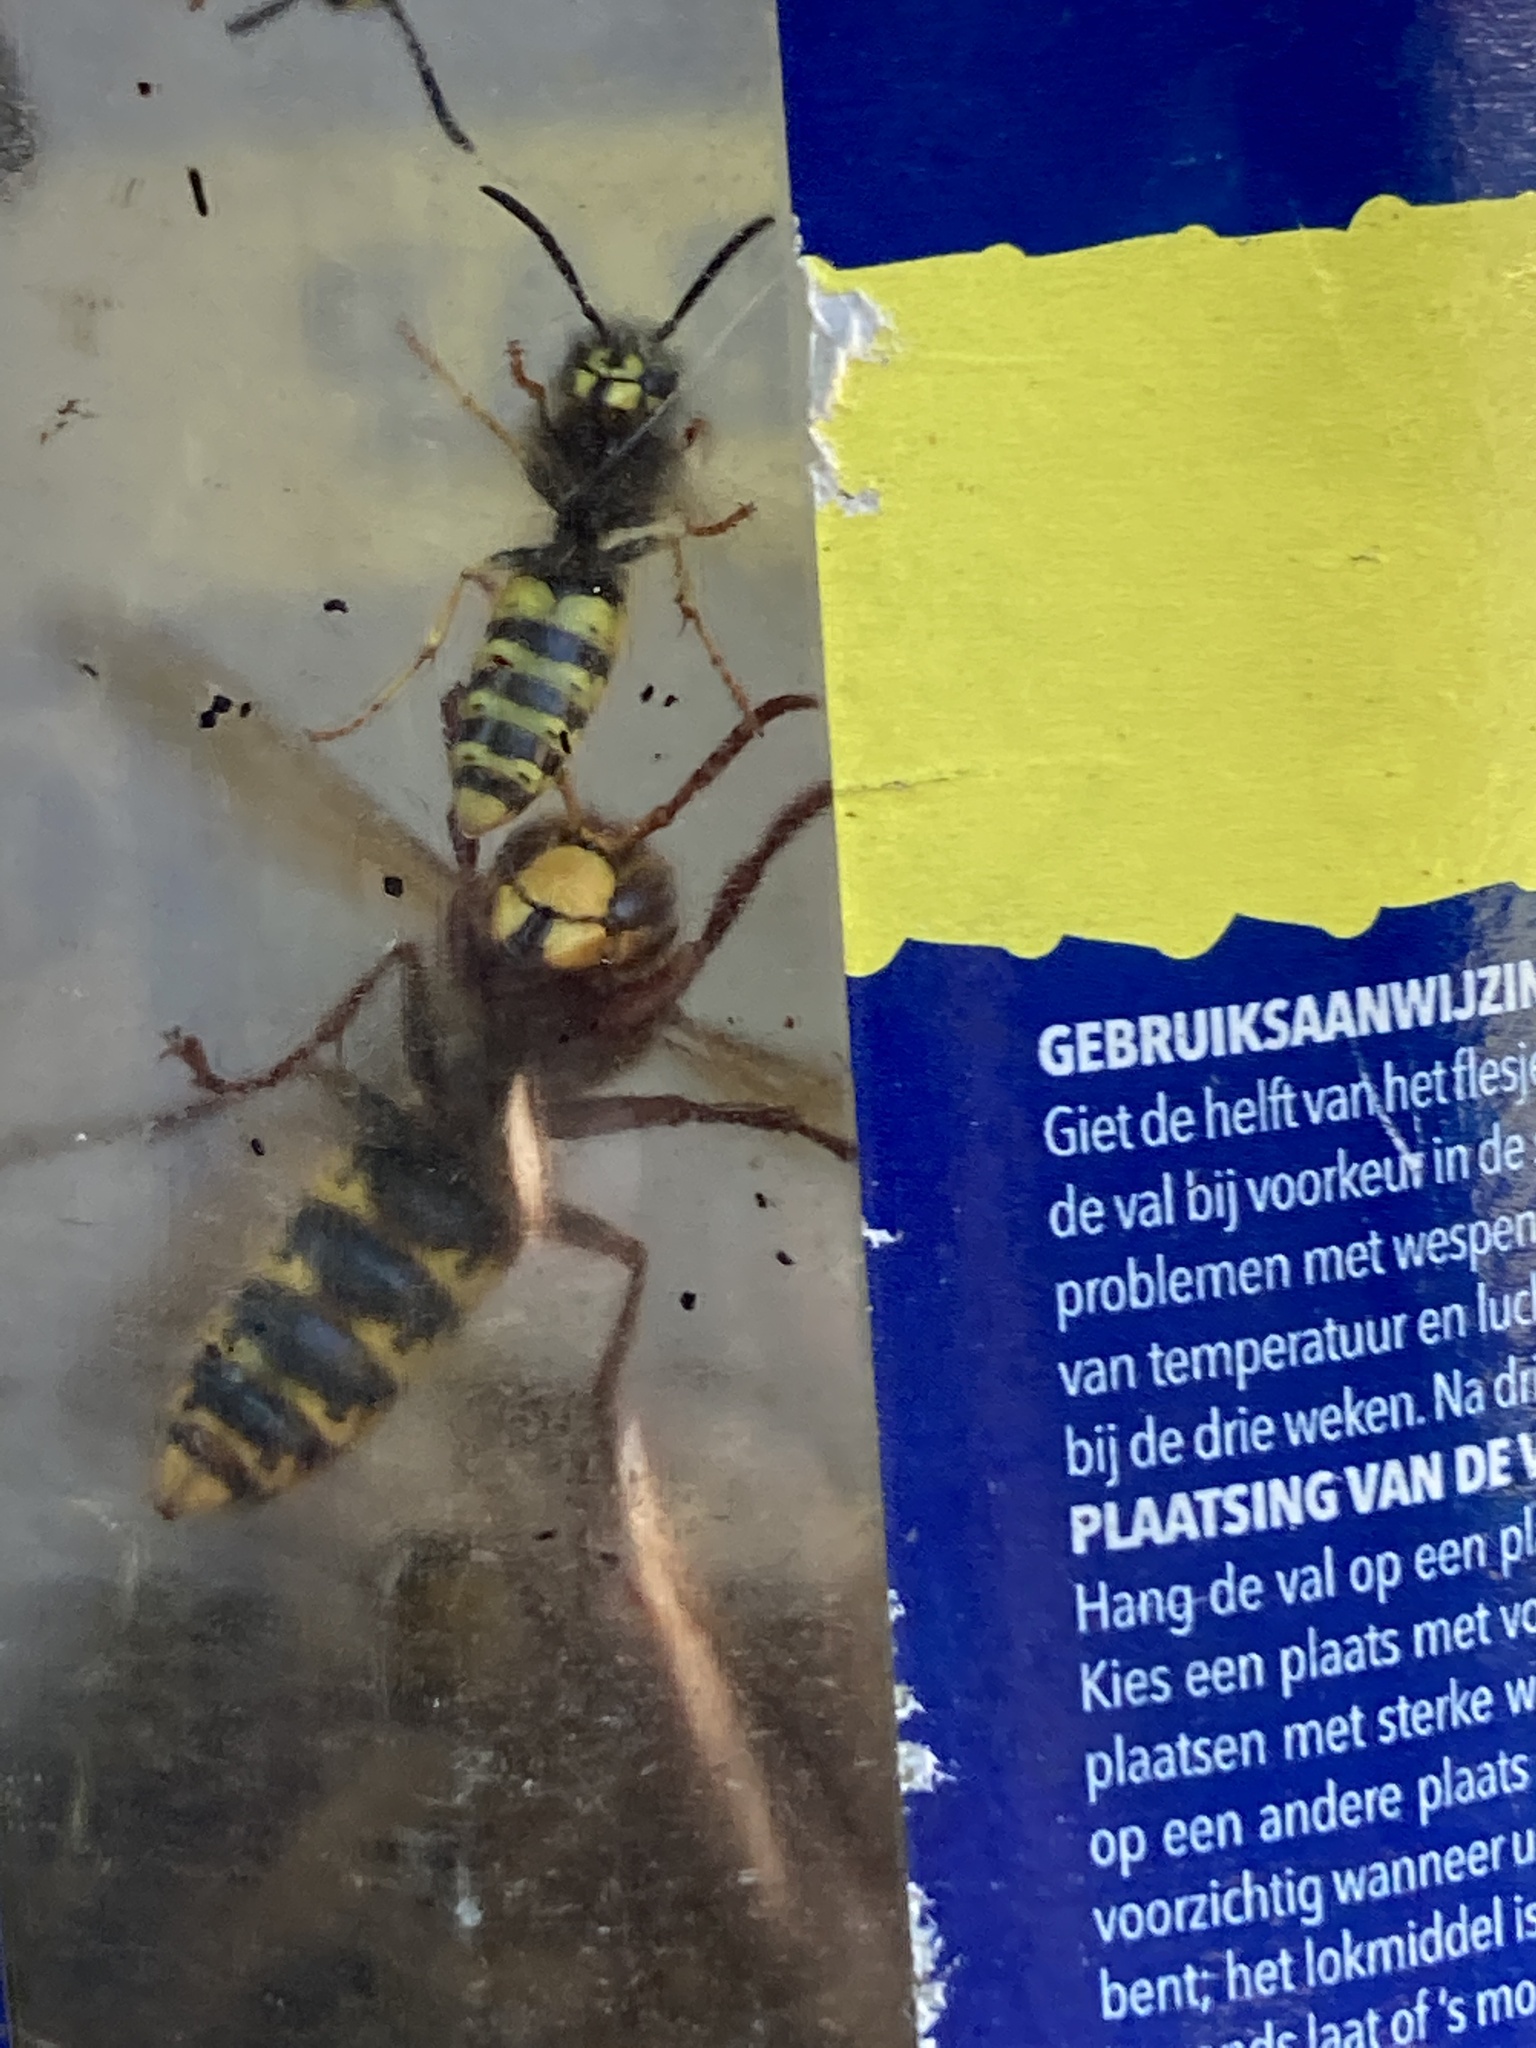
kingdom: Animalia
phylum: Arthropoda
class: Insecta
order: Hymenoptera
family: Vespidae
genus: Vespa
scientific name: Vespa crabro
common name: Hornet
